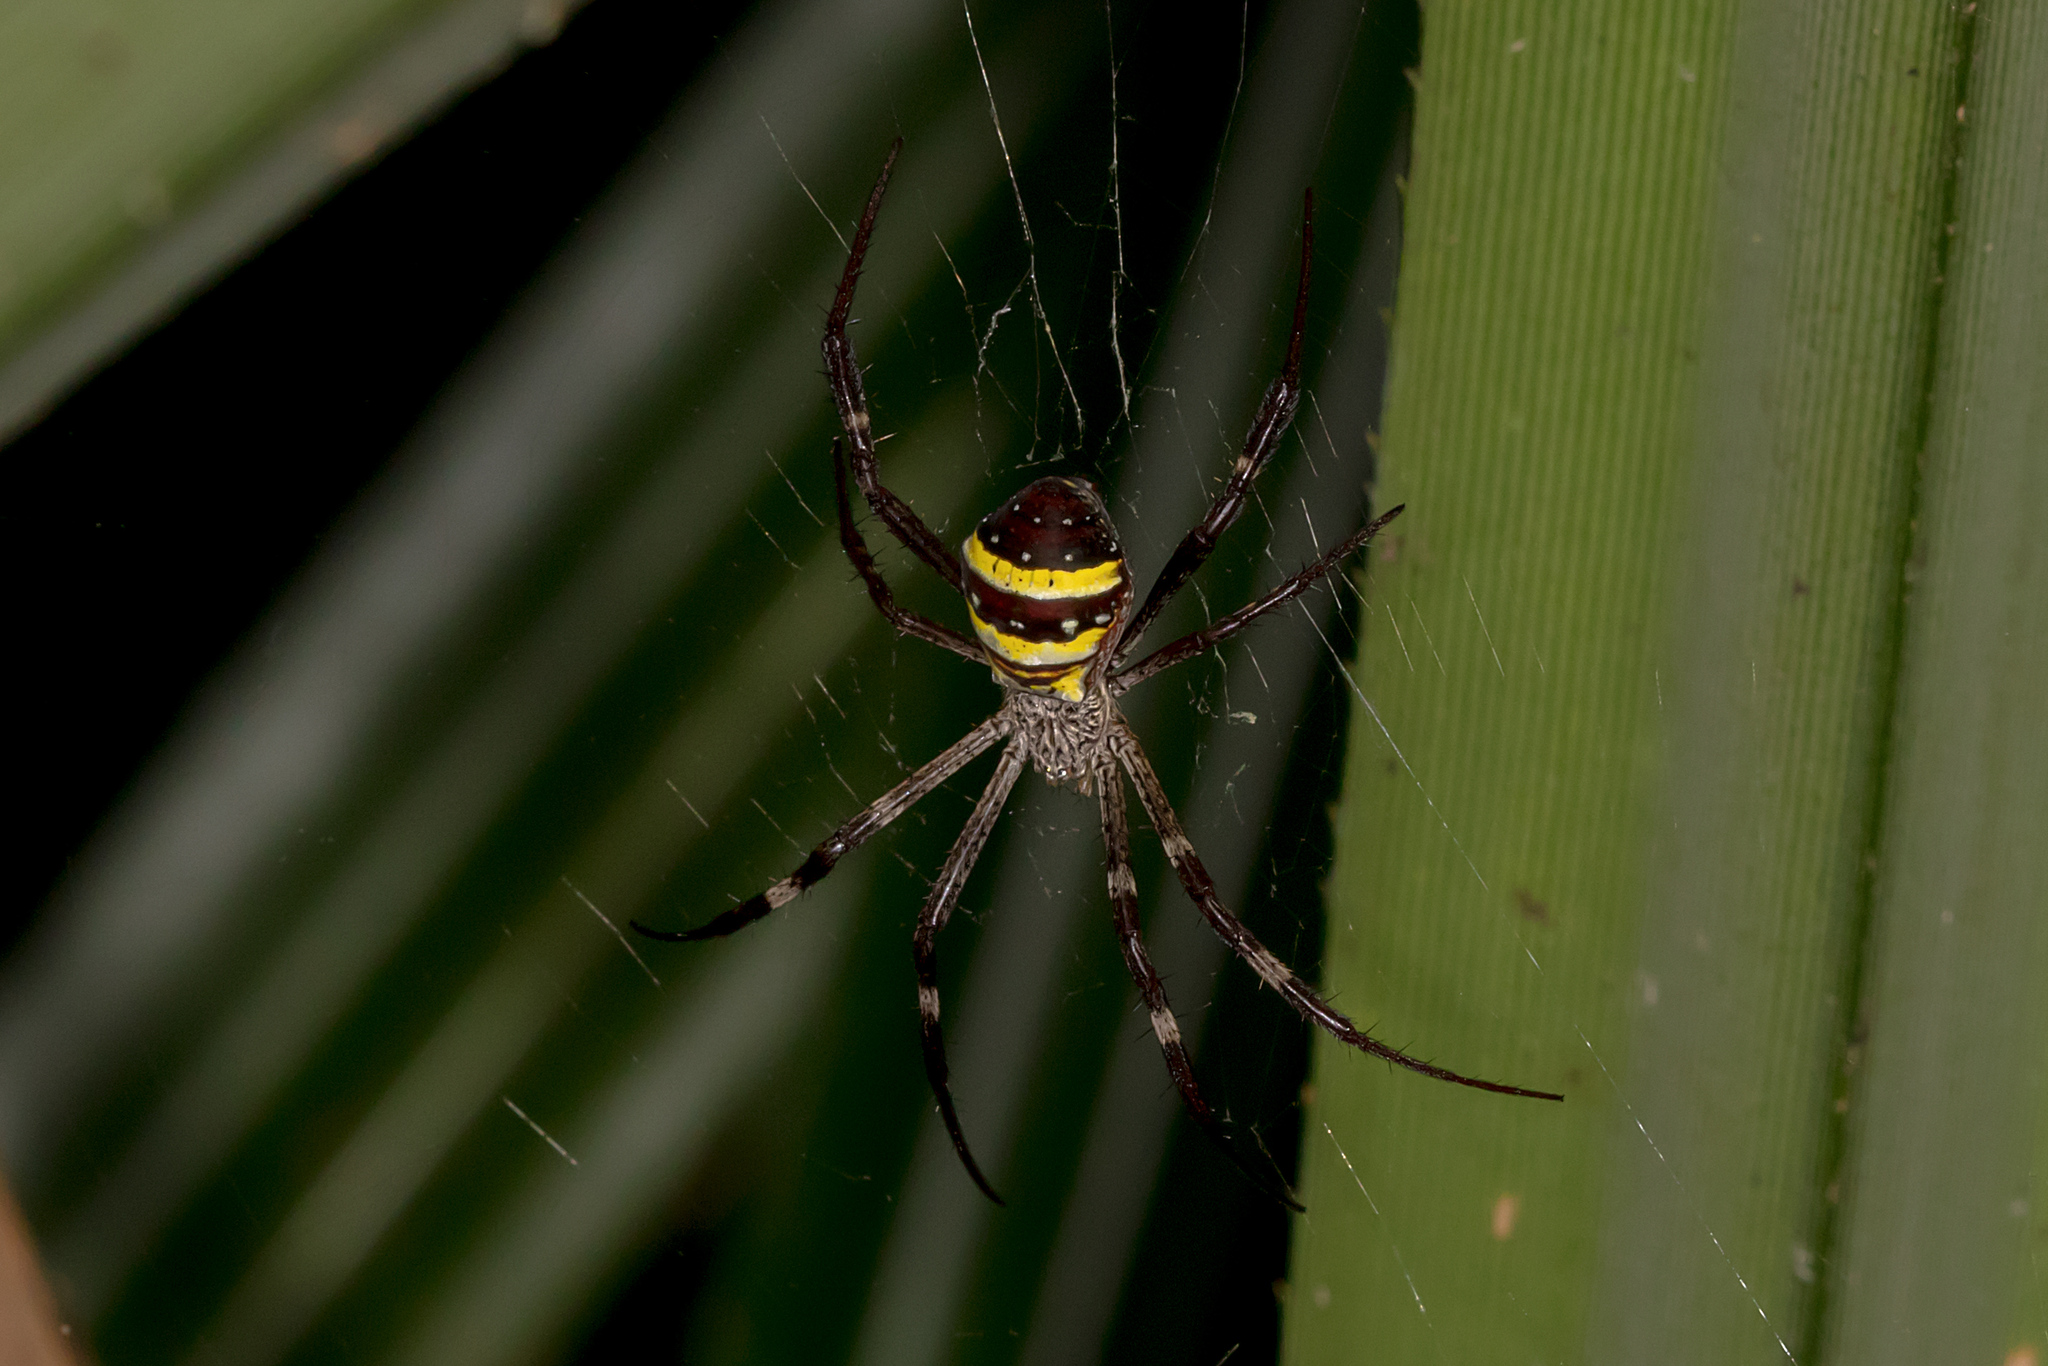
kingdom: Animalia
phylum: Arthropoda
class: Arachnida
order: Araneae
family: Araneidae
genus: Argiope
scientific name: Argiope aetherea
